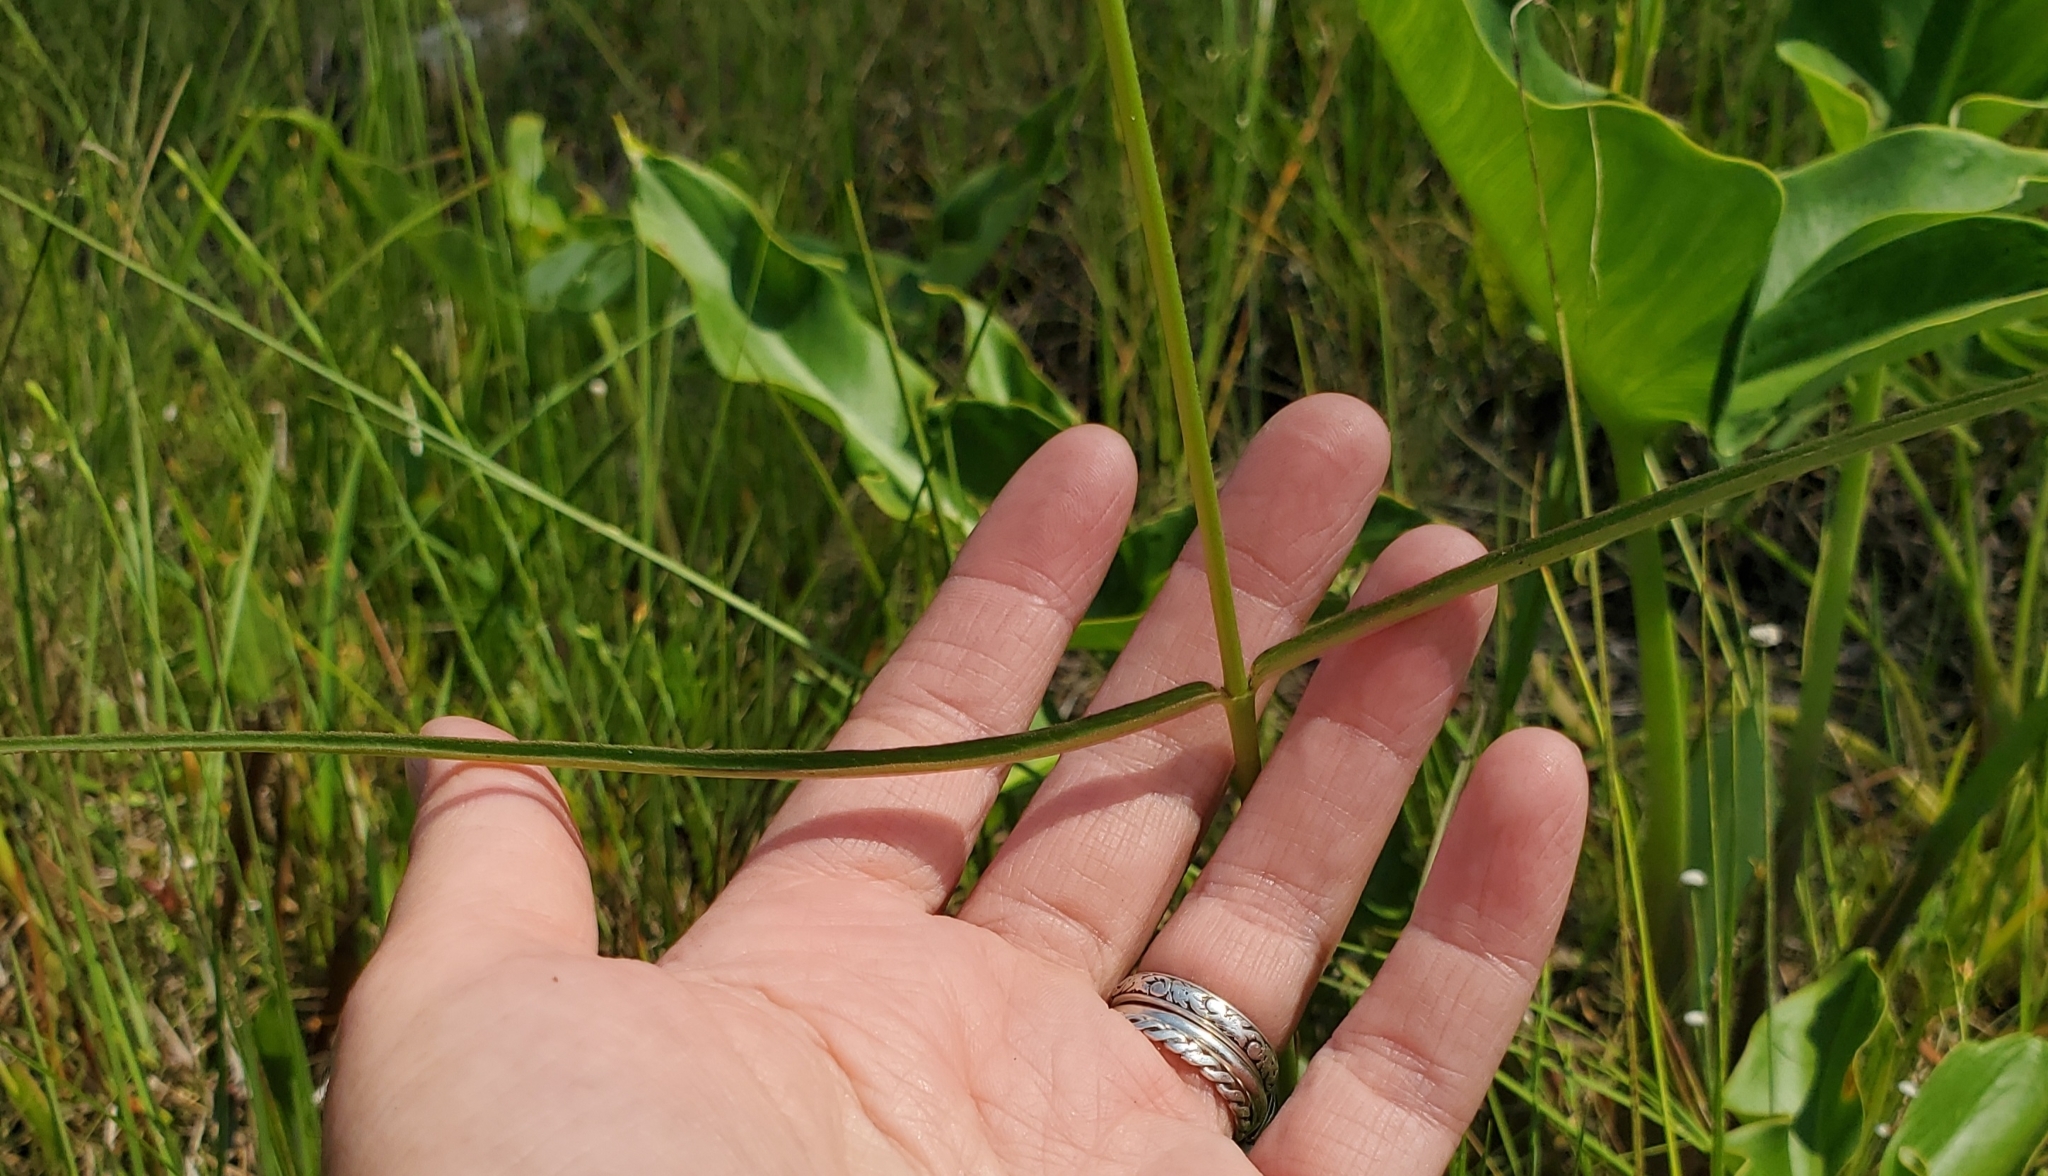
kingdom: Plantae
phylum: Tracheophyta
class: Magnoliopsida
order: Gentianales
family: Apocynaceae
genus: Asclepias
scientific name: Asclepias lanceolata
